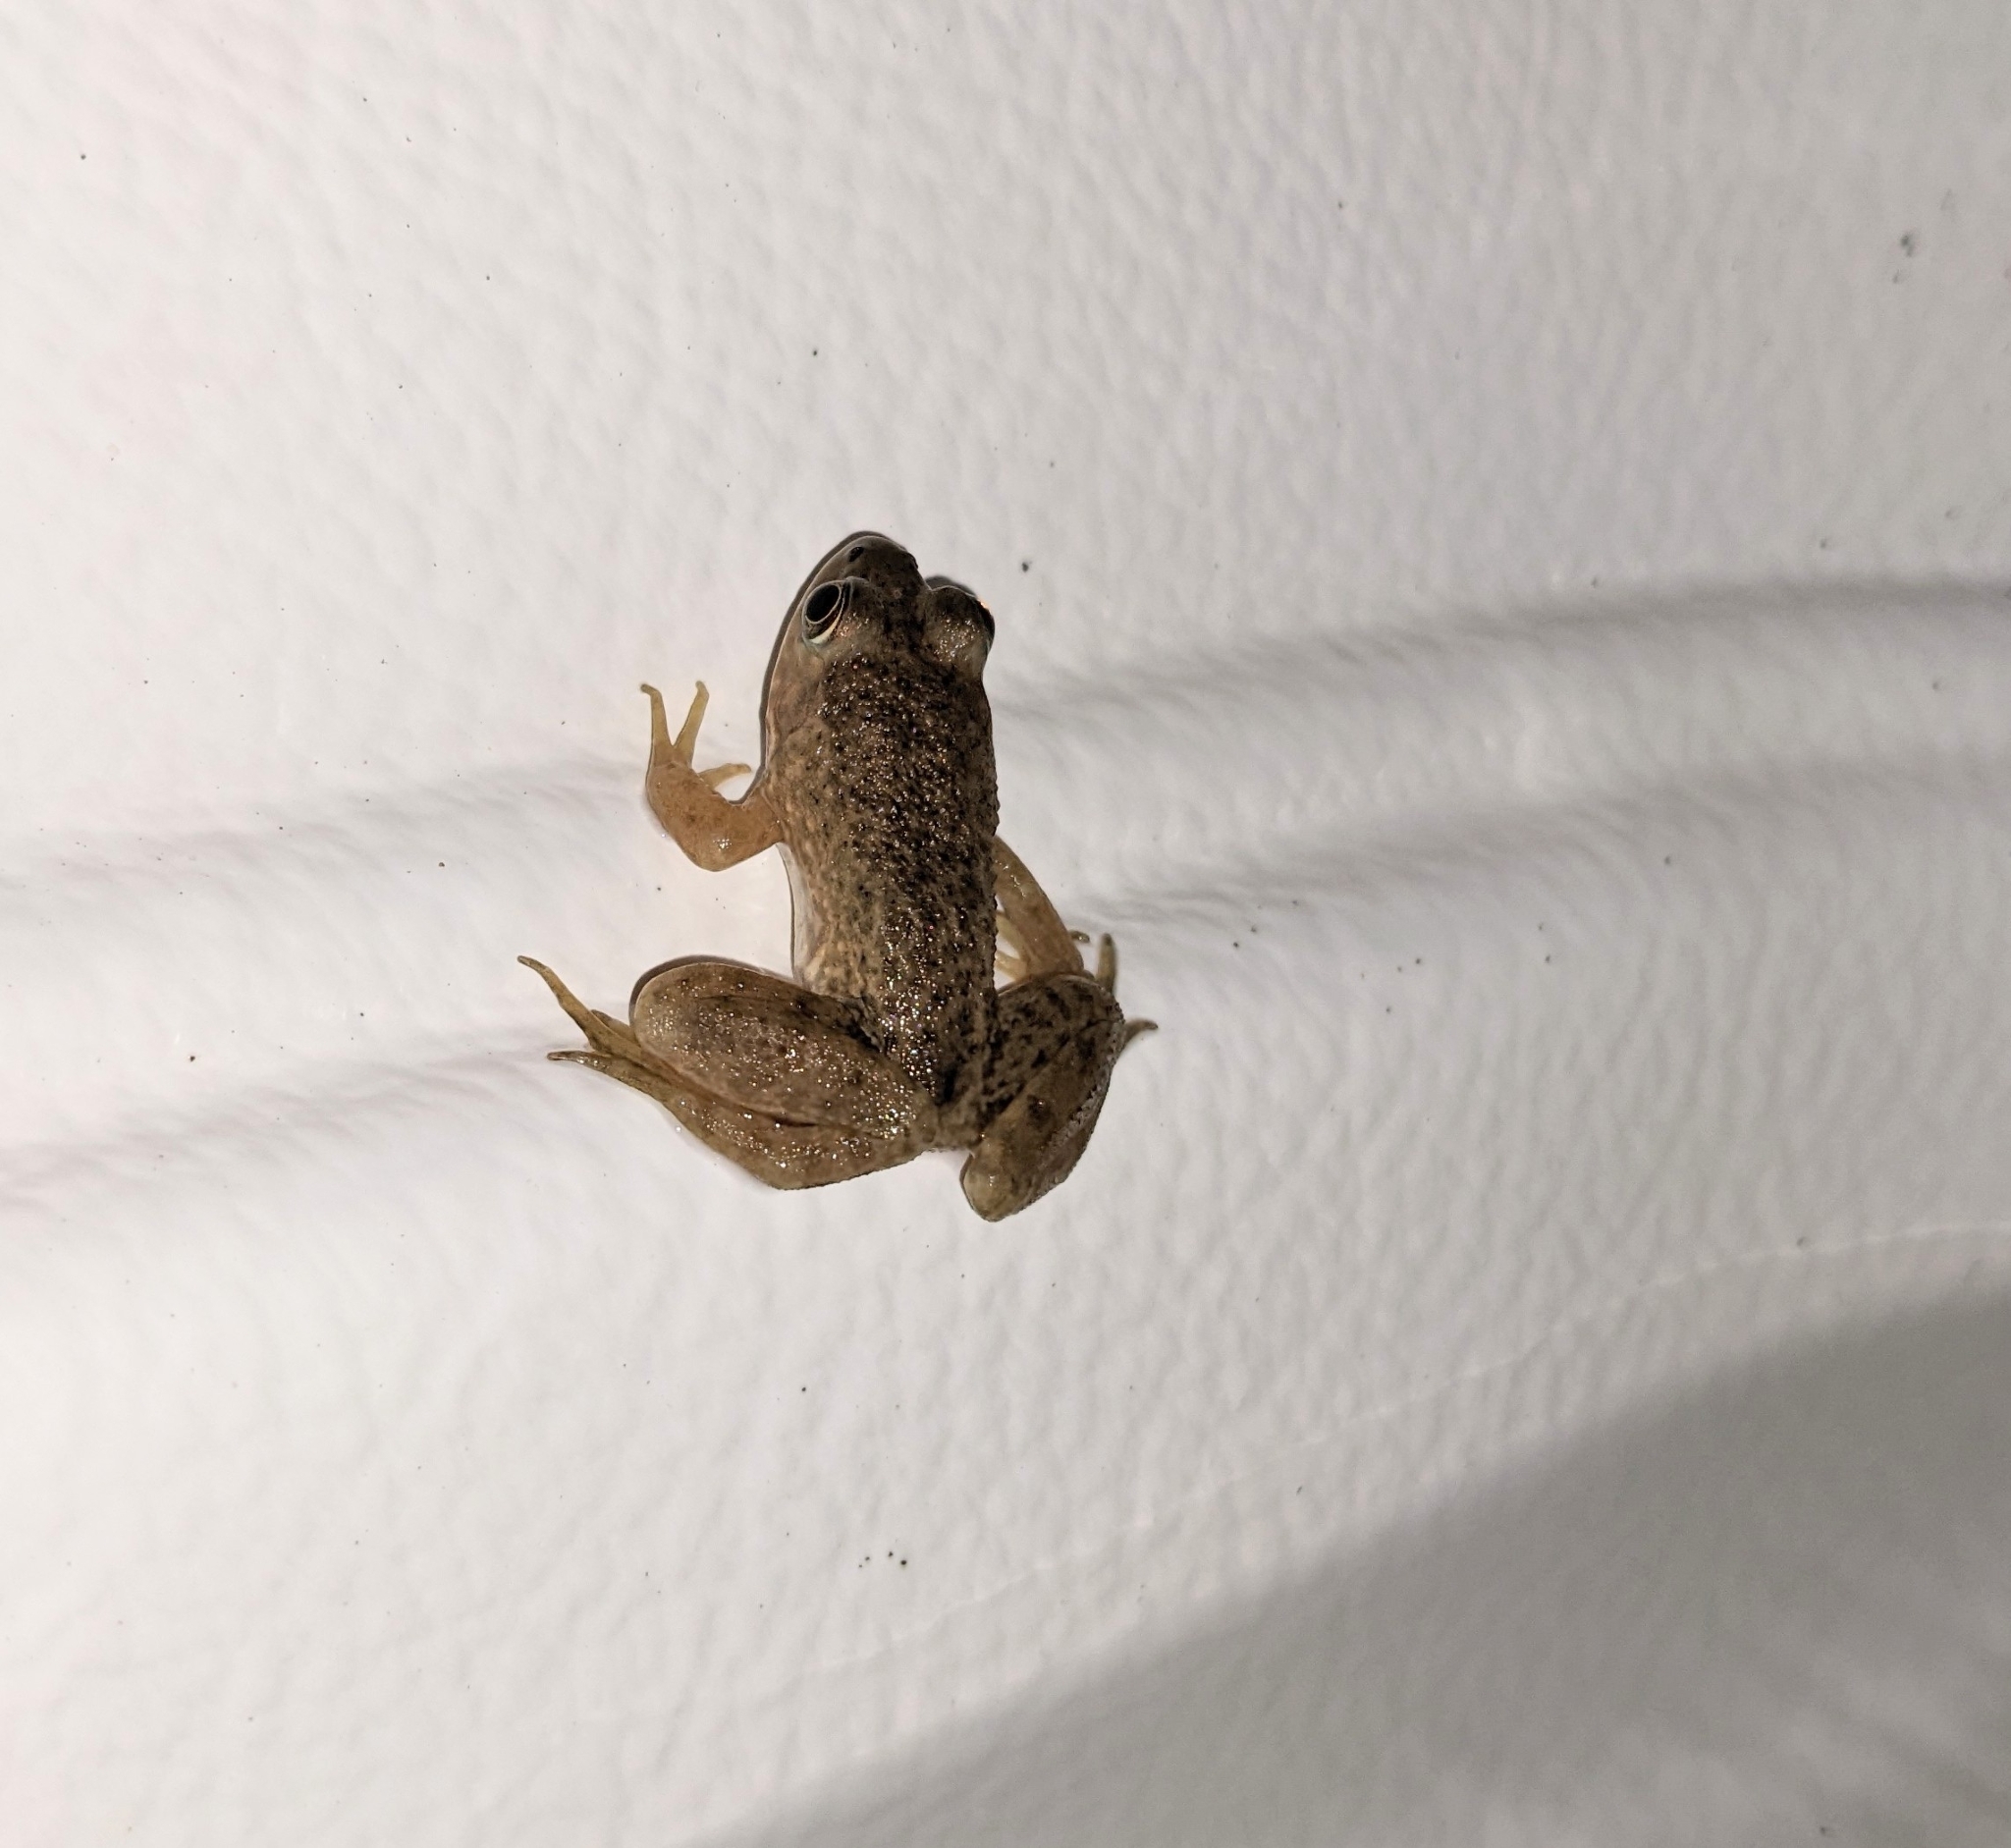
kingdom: Animalia
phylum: Chordata
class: Amphibia
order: Anura
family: Ranidae
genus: Lithobates
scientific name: Lithobates catesbeianus
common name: American bullfrog
